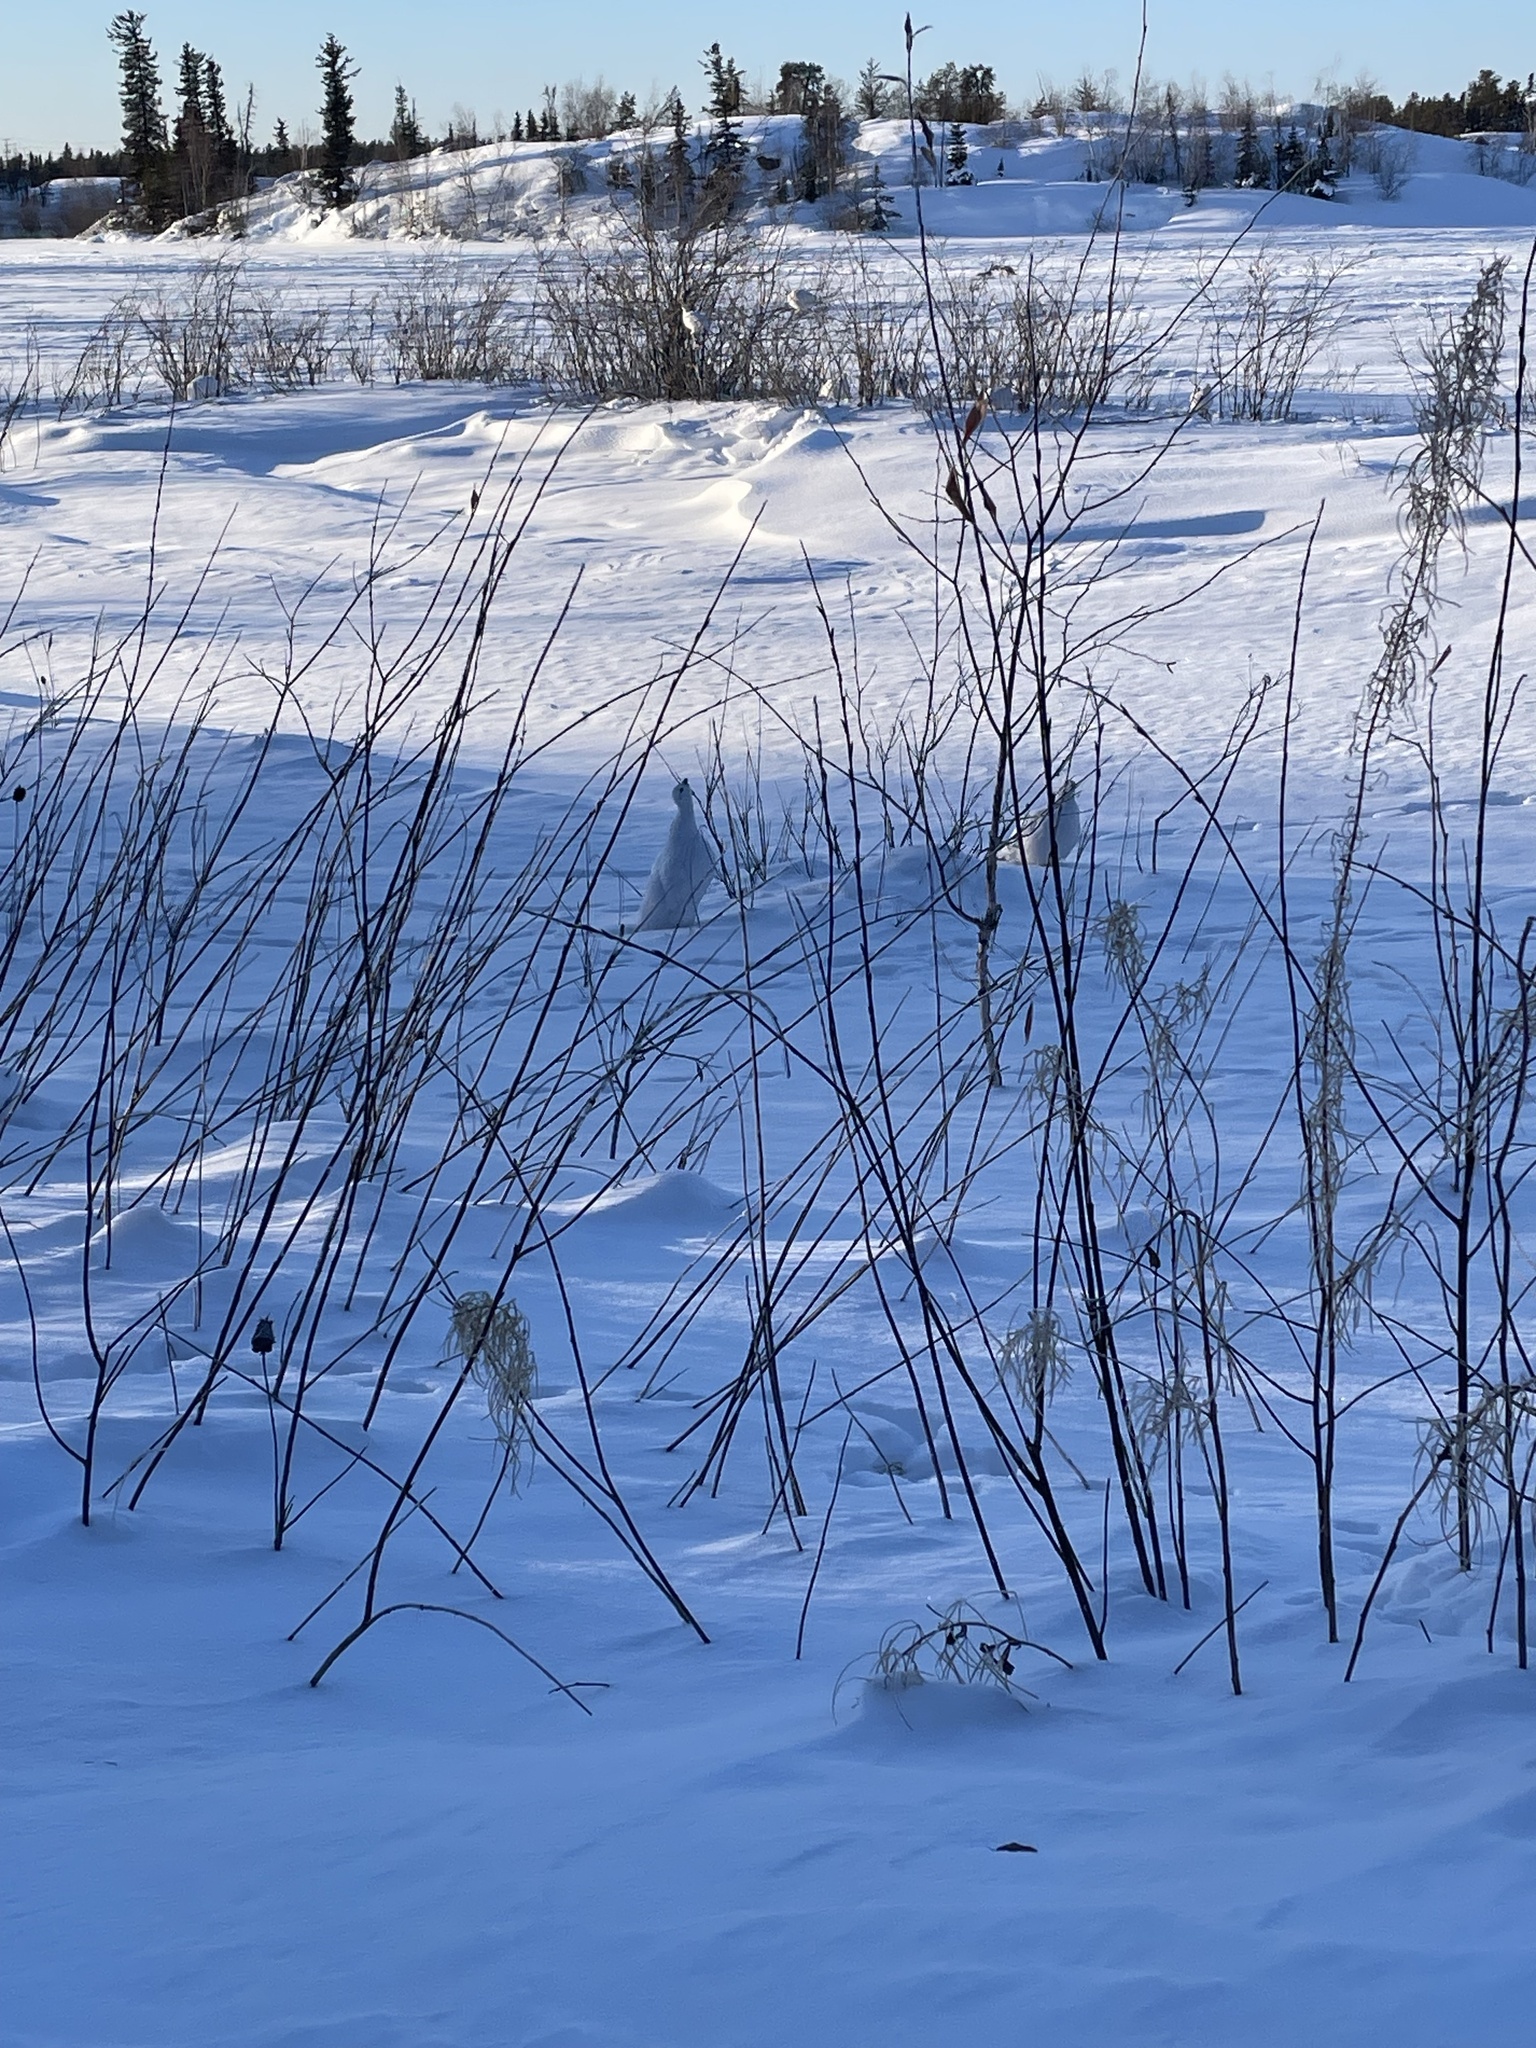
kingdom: Animalia
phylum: Chordata
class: Aves
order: Galliformes
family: Phasianidae
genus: Lagopus
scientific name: Lagopus lagopus
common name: Willow ptarmigan
